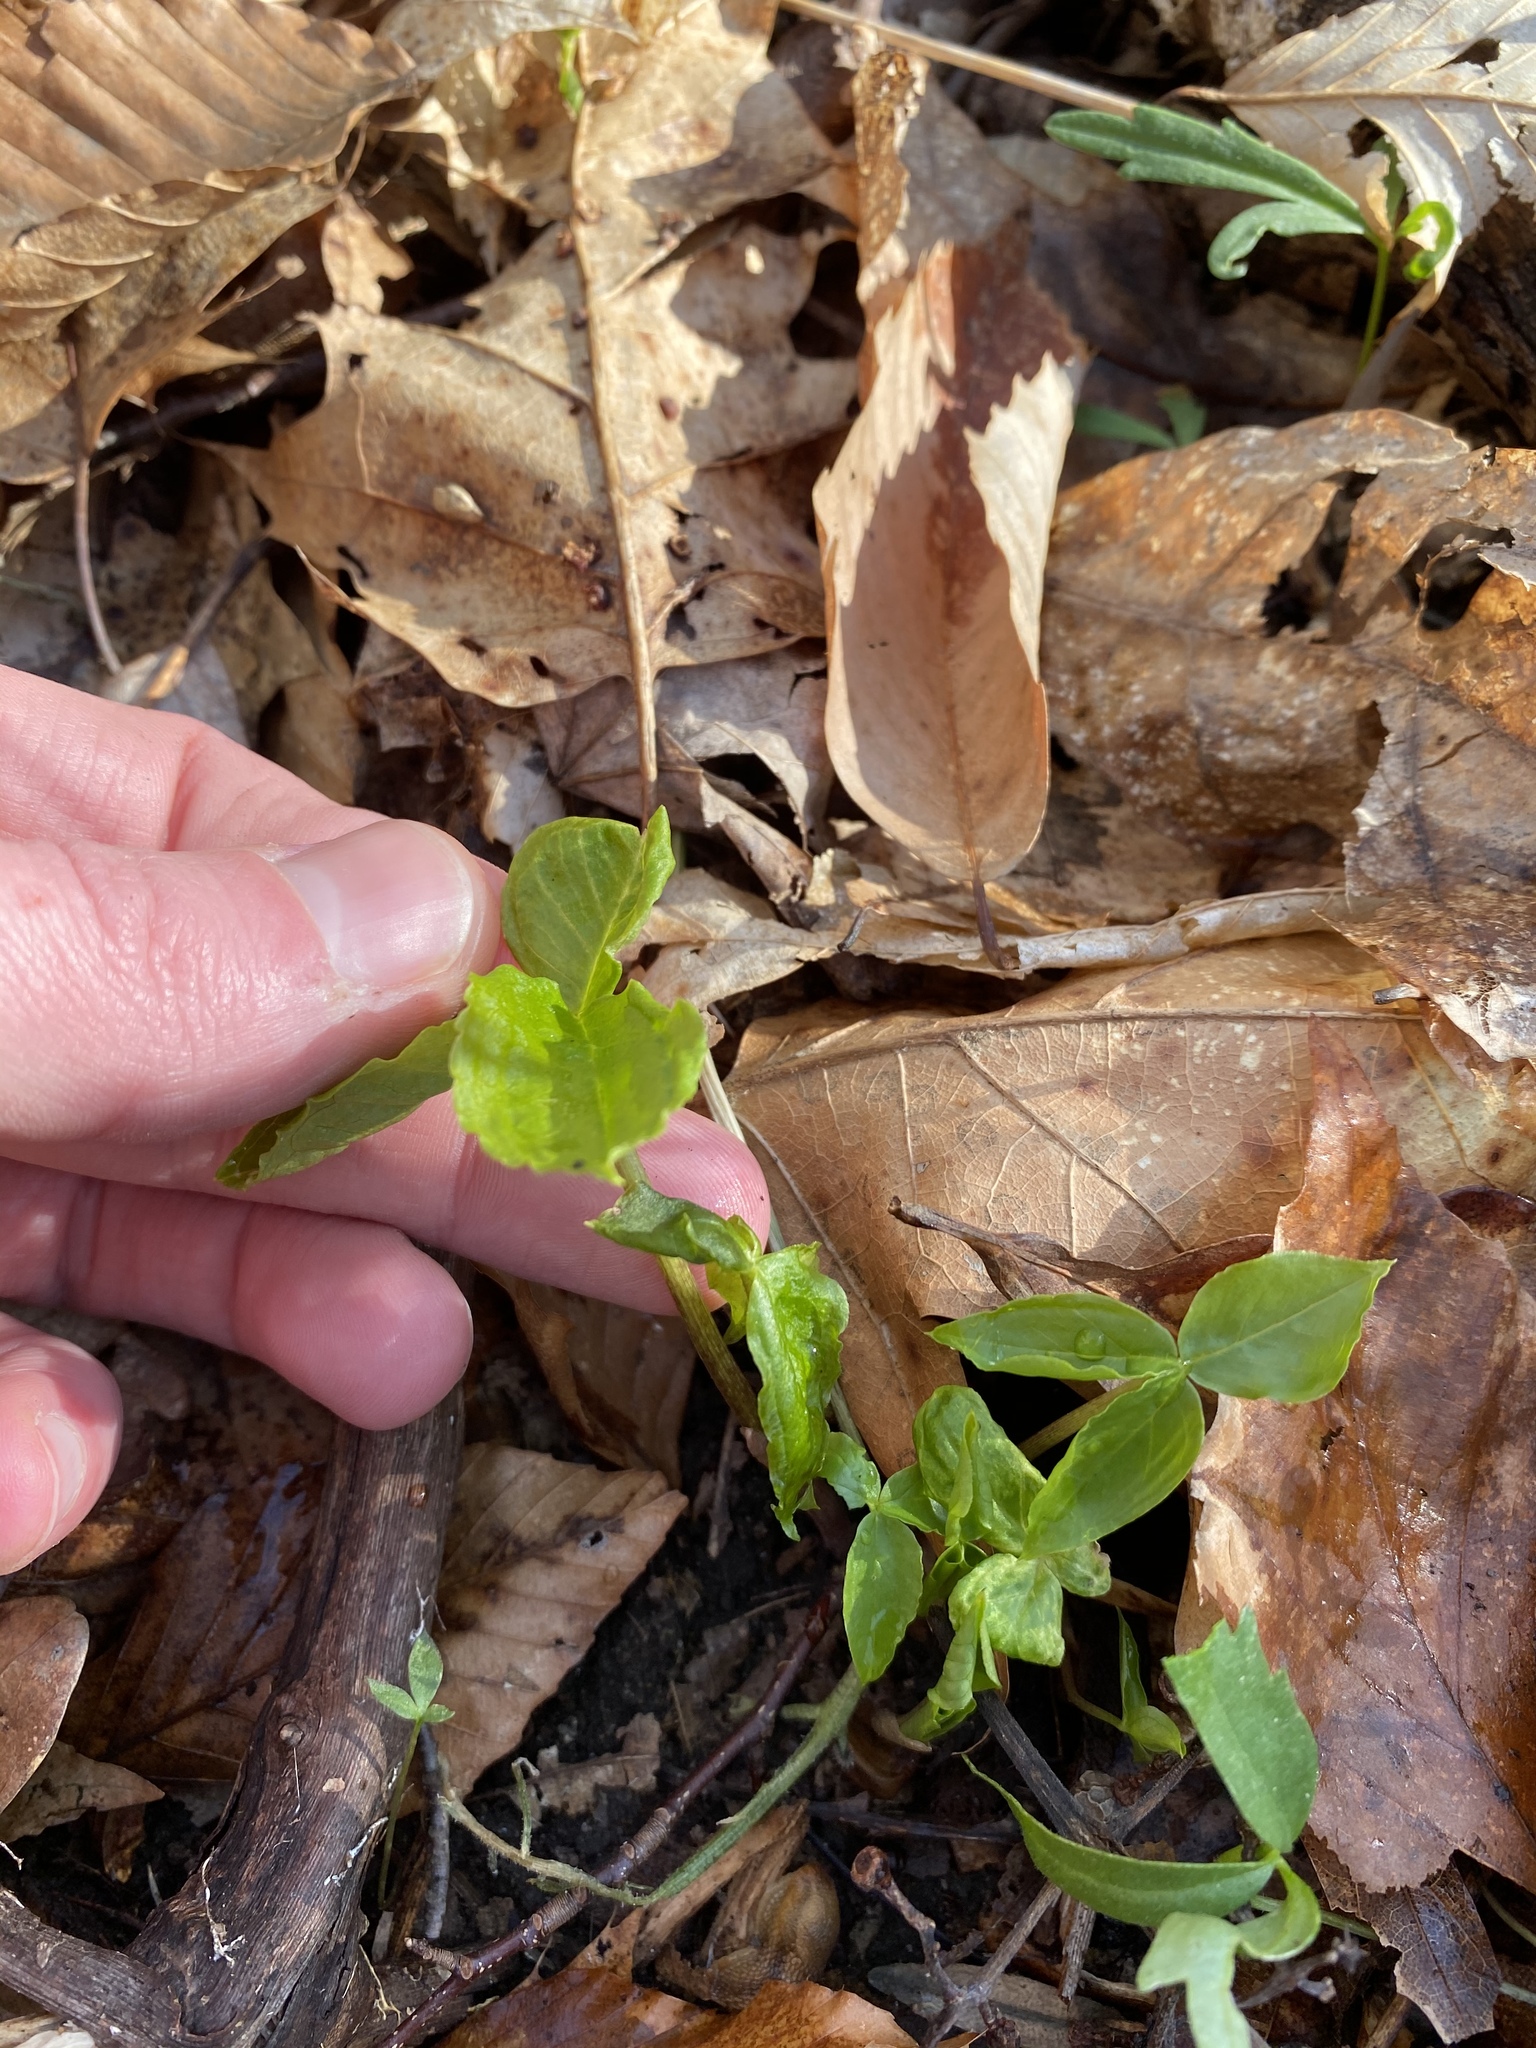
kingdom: Plantae
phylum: Tracheophyta
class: Liliopsida
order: Alismatales
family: Araceae
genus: Arisaema
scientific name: Arisaema triphyllum
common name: Jack-in-the-pulpit
